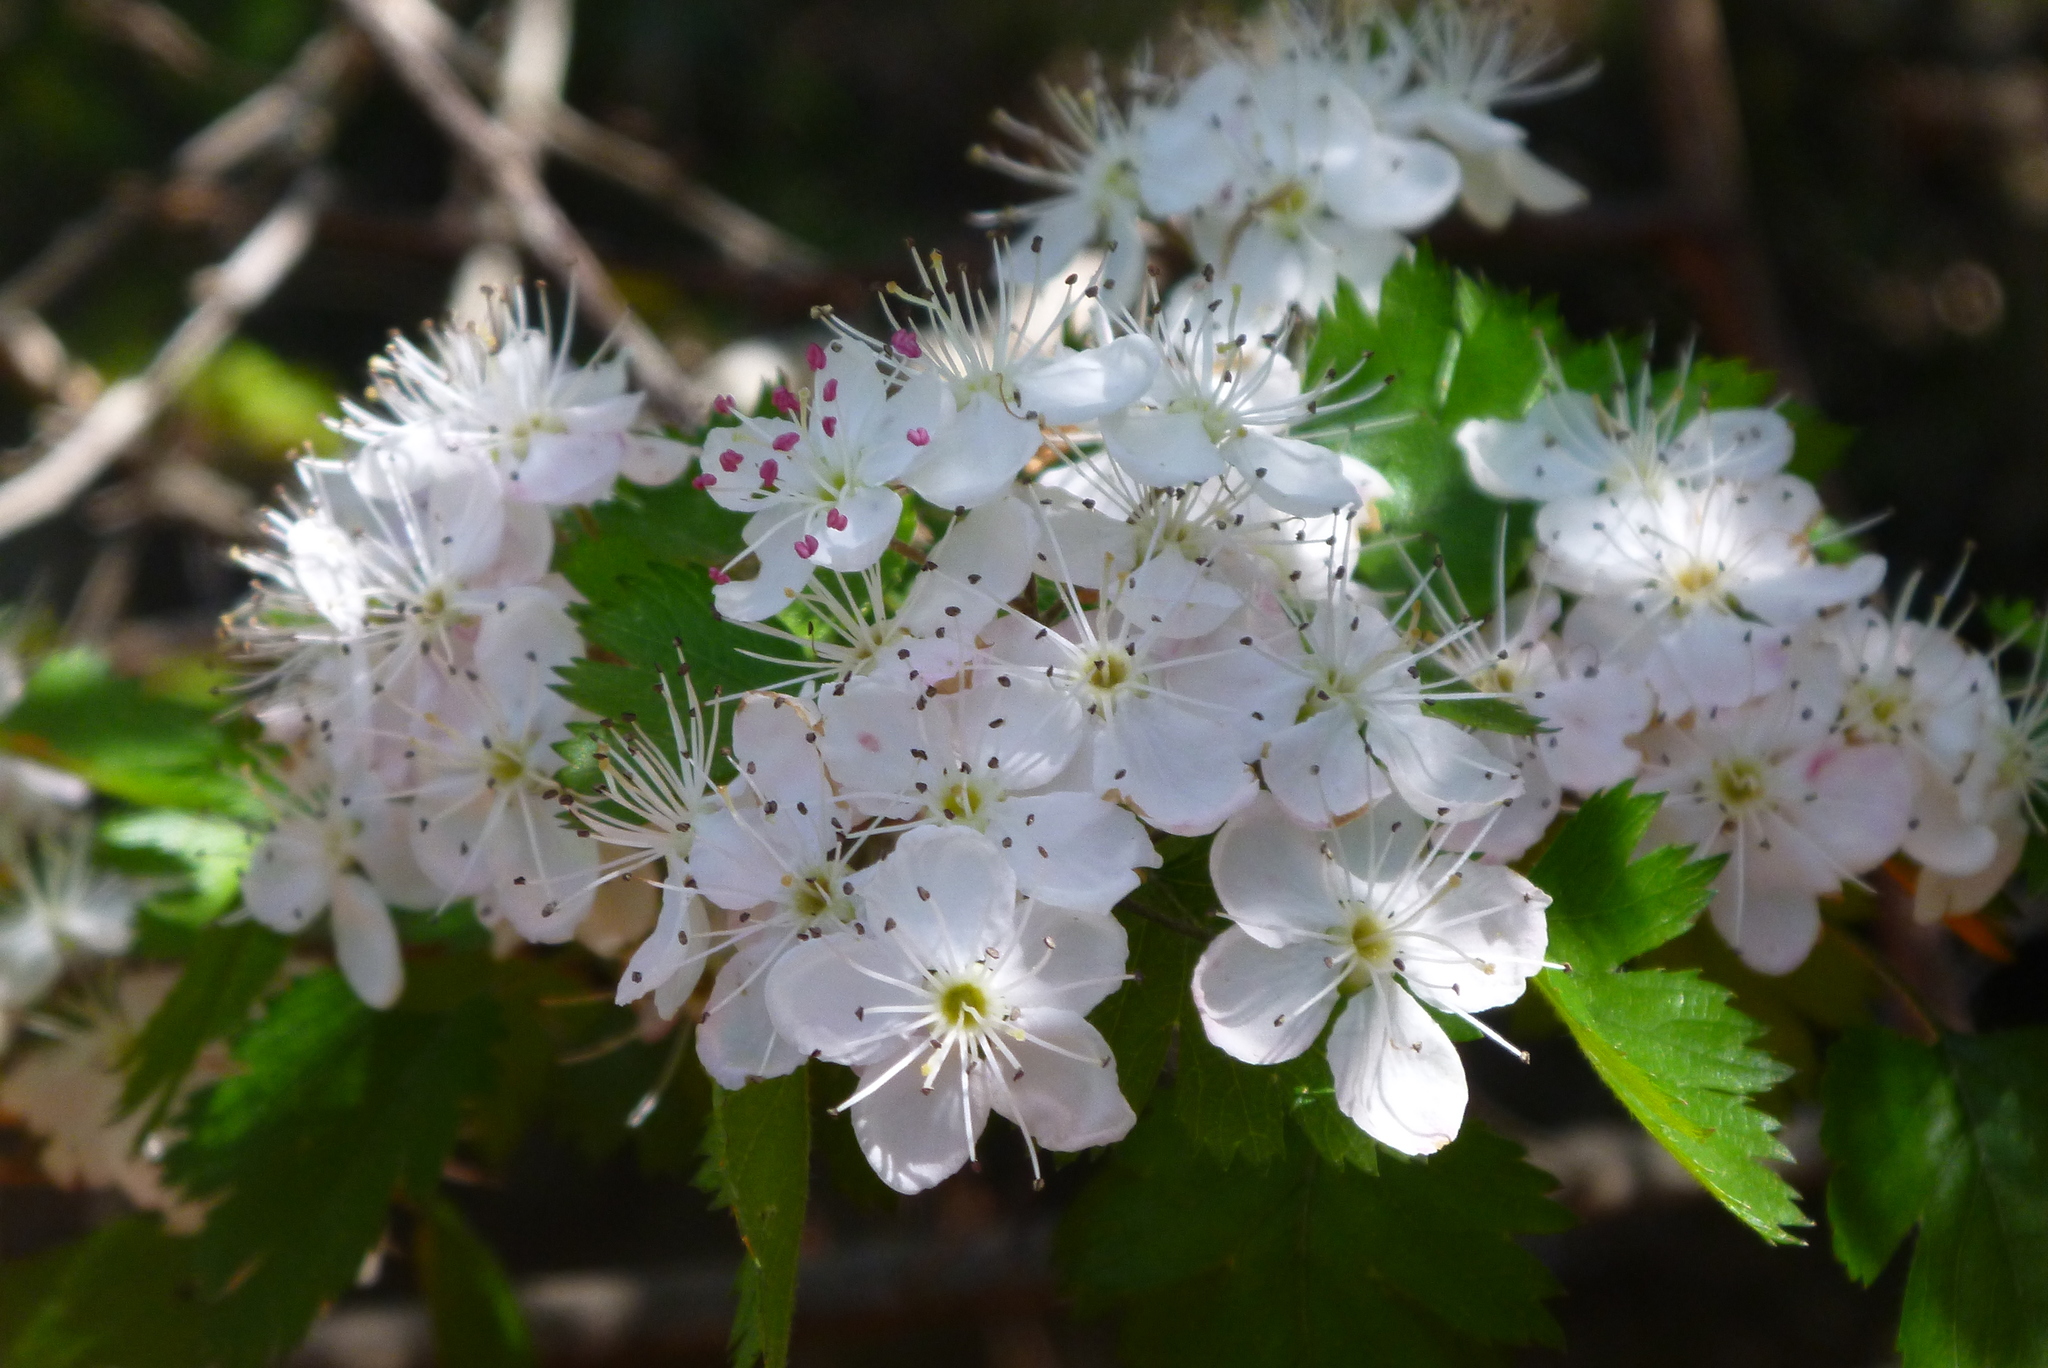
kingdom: Plantae
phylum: Tracheophyta
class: Magnoliopsida
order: Rosales
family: Rosaceae
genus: Crataegus
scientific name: Crataegus marshallii
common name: Parsley-hawthorn
